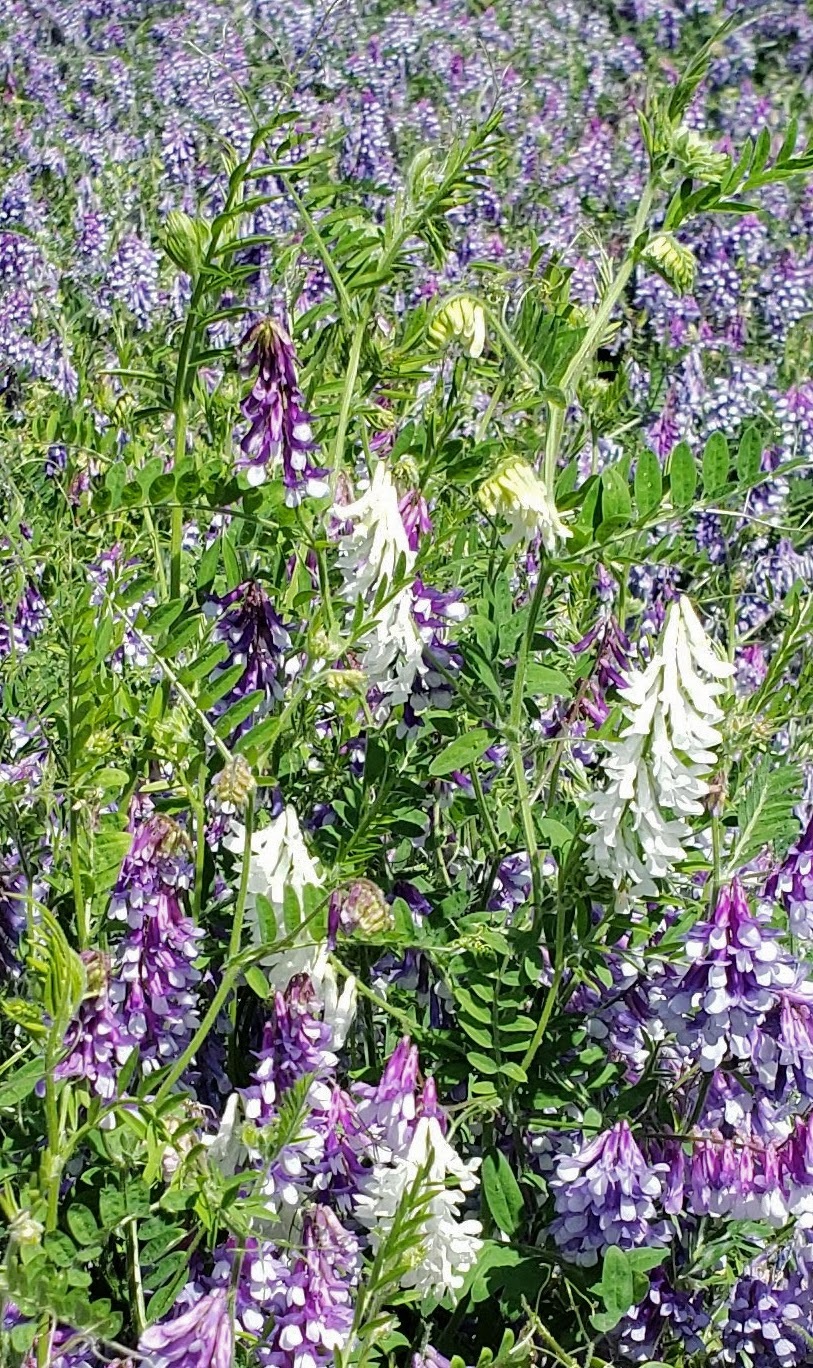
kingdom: Plantae
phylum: Tracheophyta
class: Magnoliopsida
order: Fabales
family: Fabaceae
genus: Vicia
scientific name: Vicia villosa
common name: Fodder vetch
